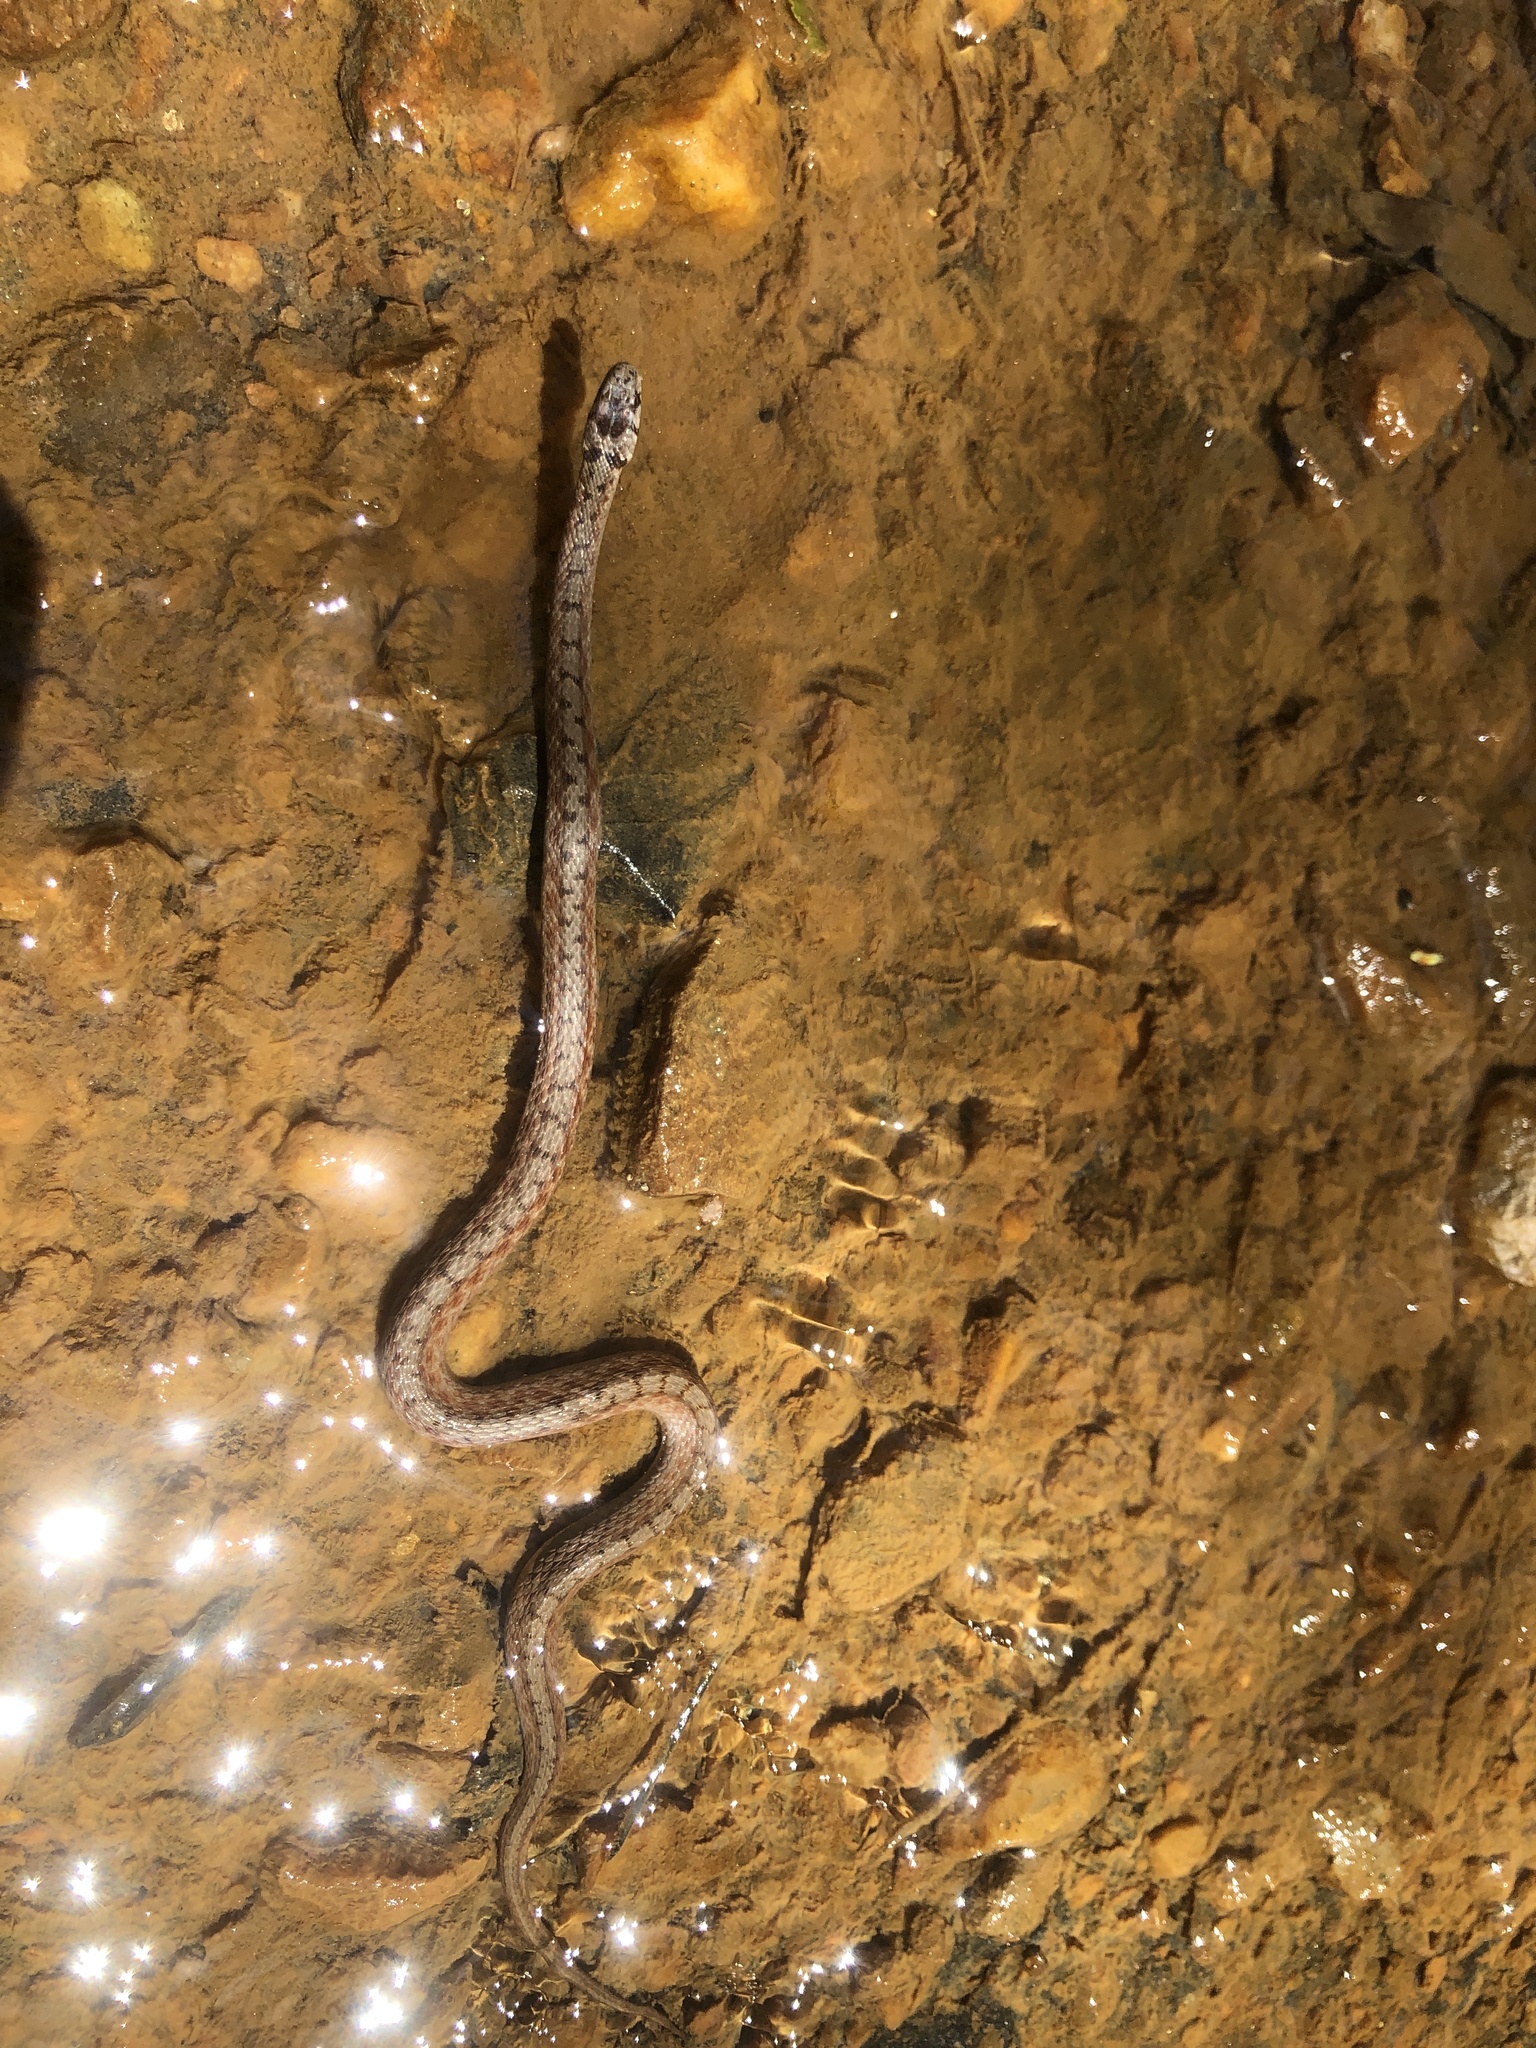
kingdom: Animalia
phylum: Chordata
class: Squamata
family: Colubridae
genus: Storeria
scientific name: Storeria dekayi
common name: (dekay’s) brown snake
